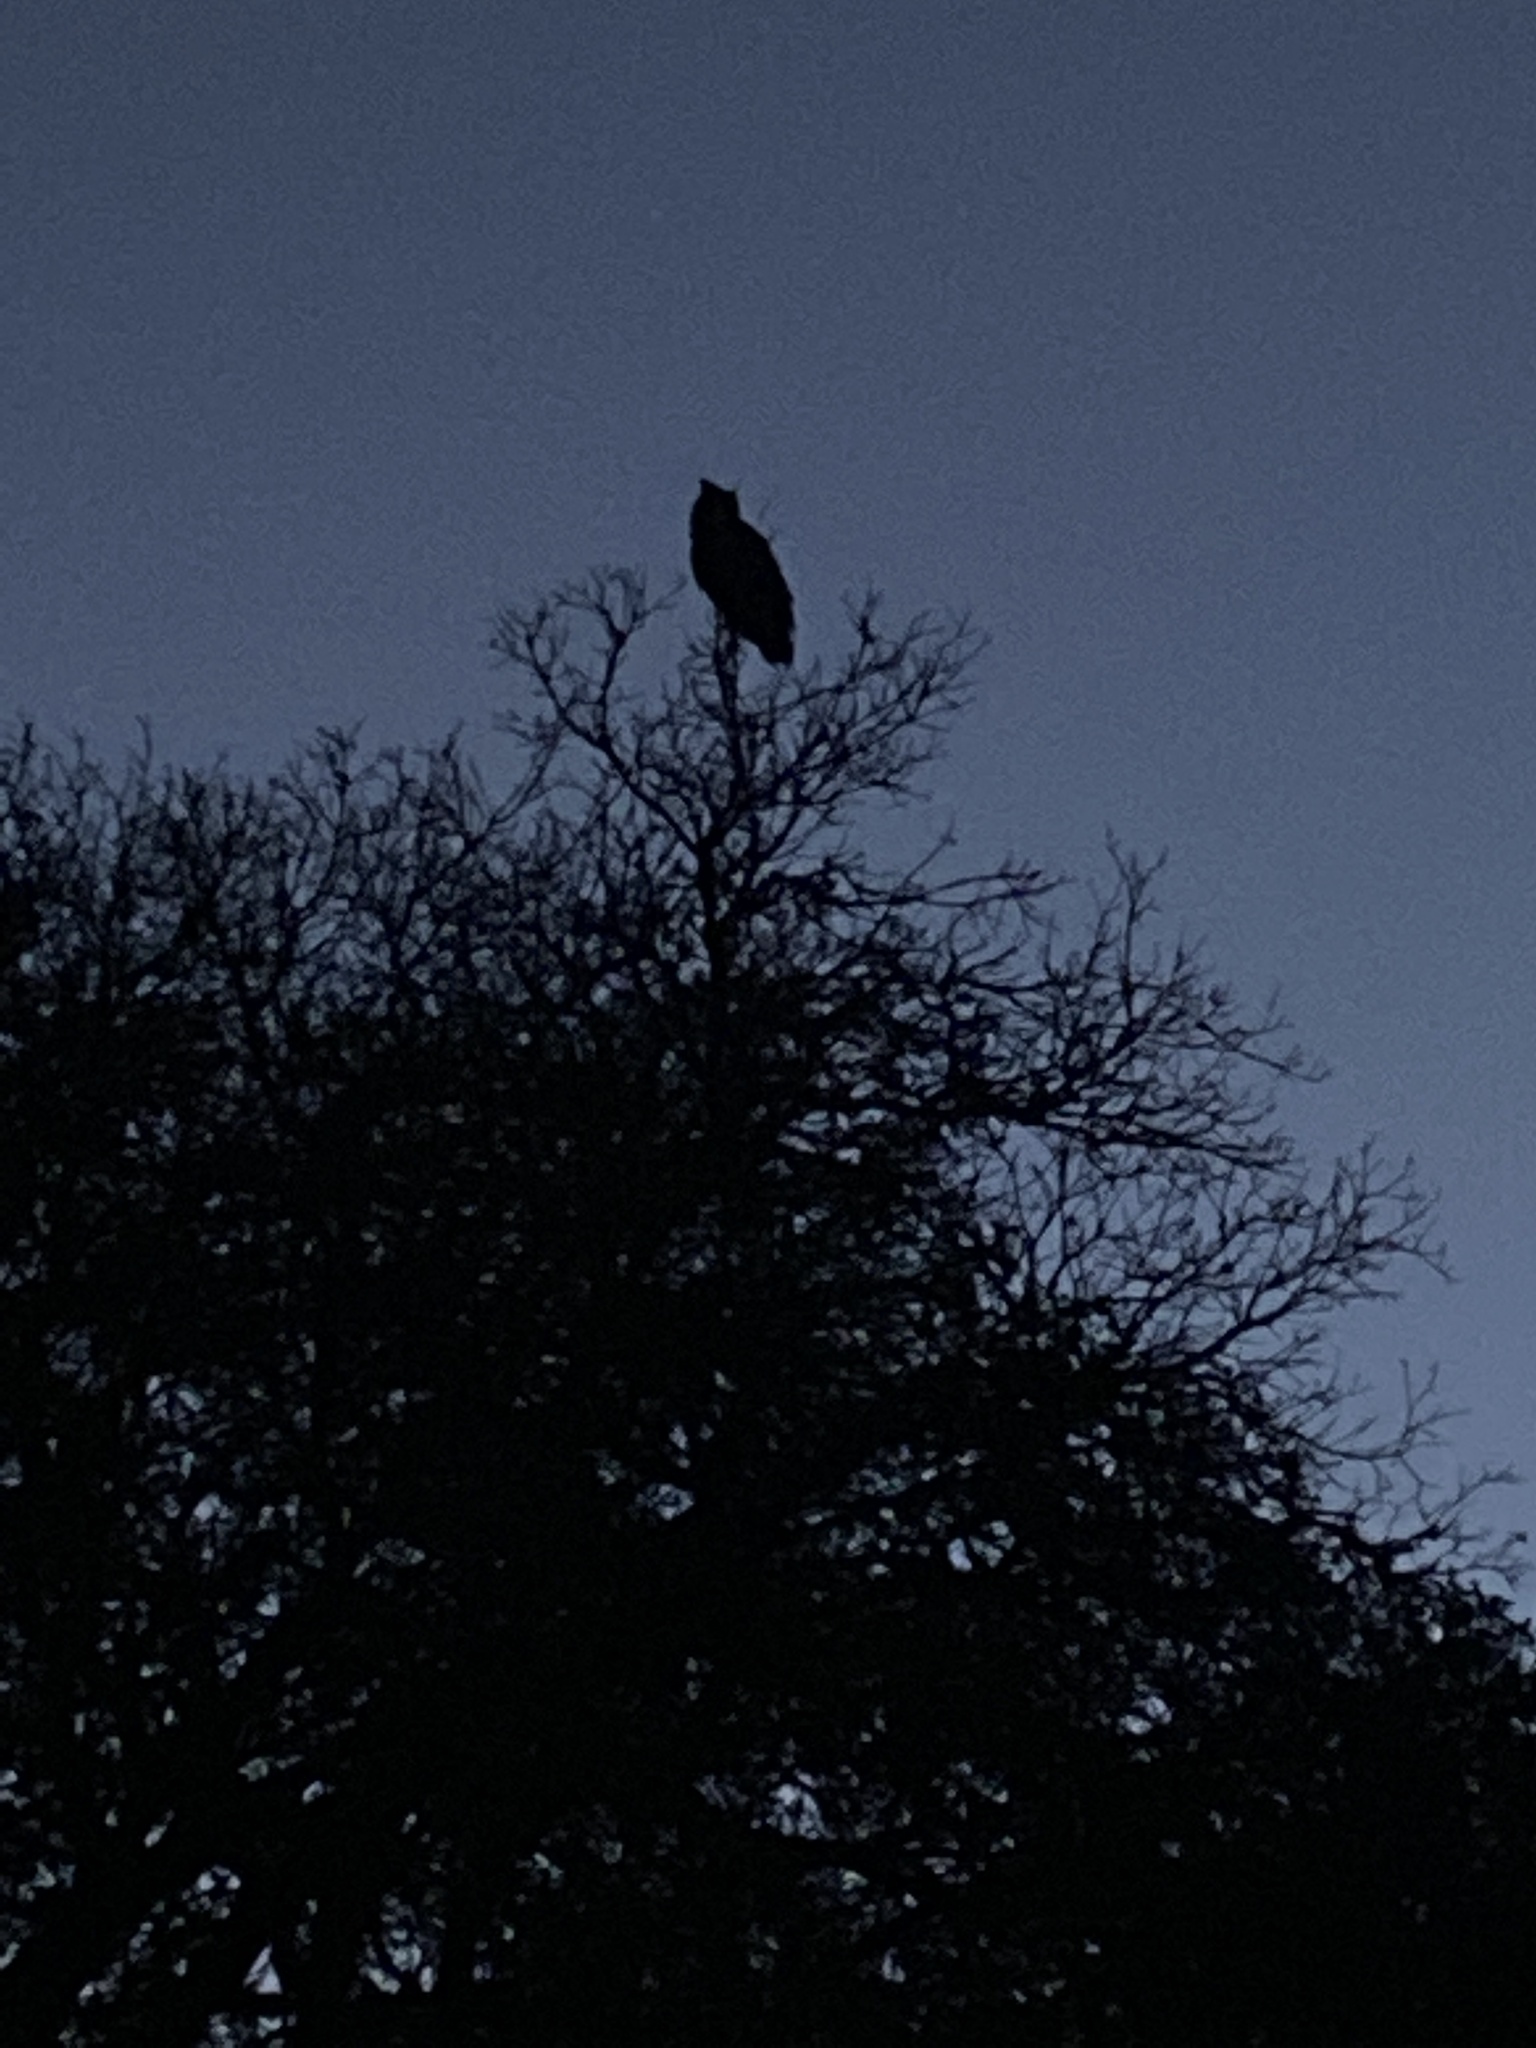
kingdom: Animalia
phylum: Chordata
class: Aves
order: Strigiformes
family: Strigidae
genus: Bubo
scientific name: Bubo virginianus
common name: Great horned owl
